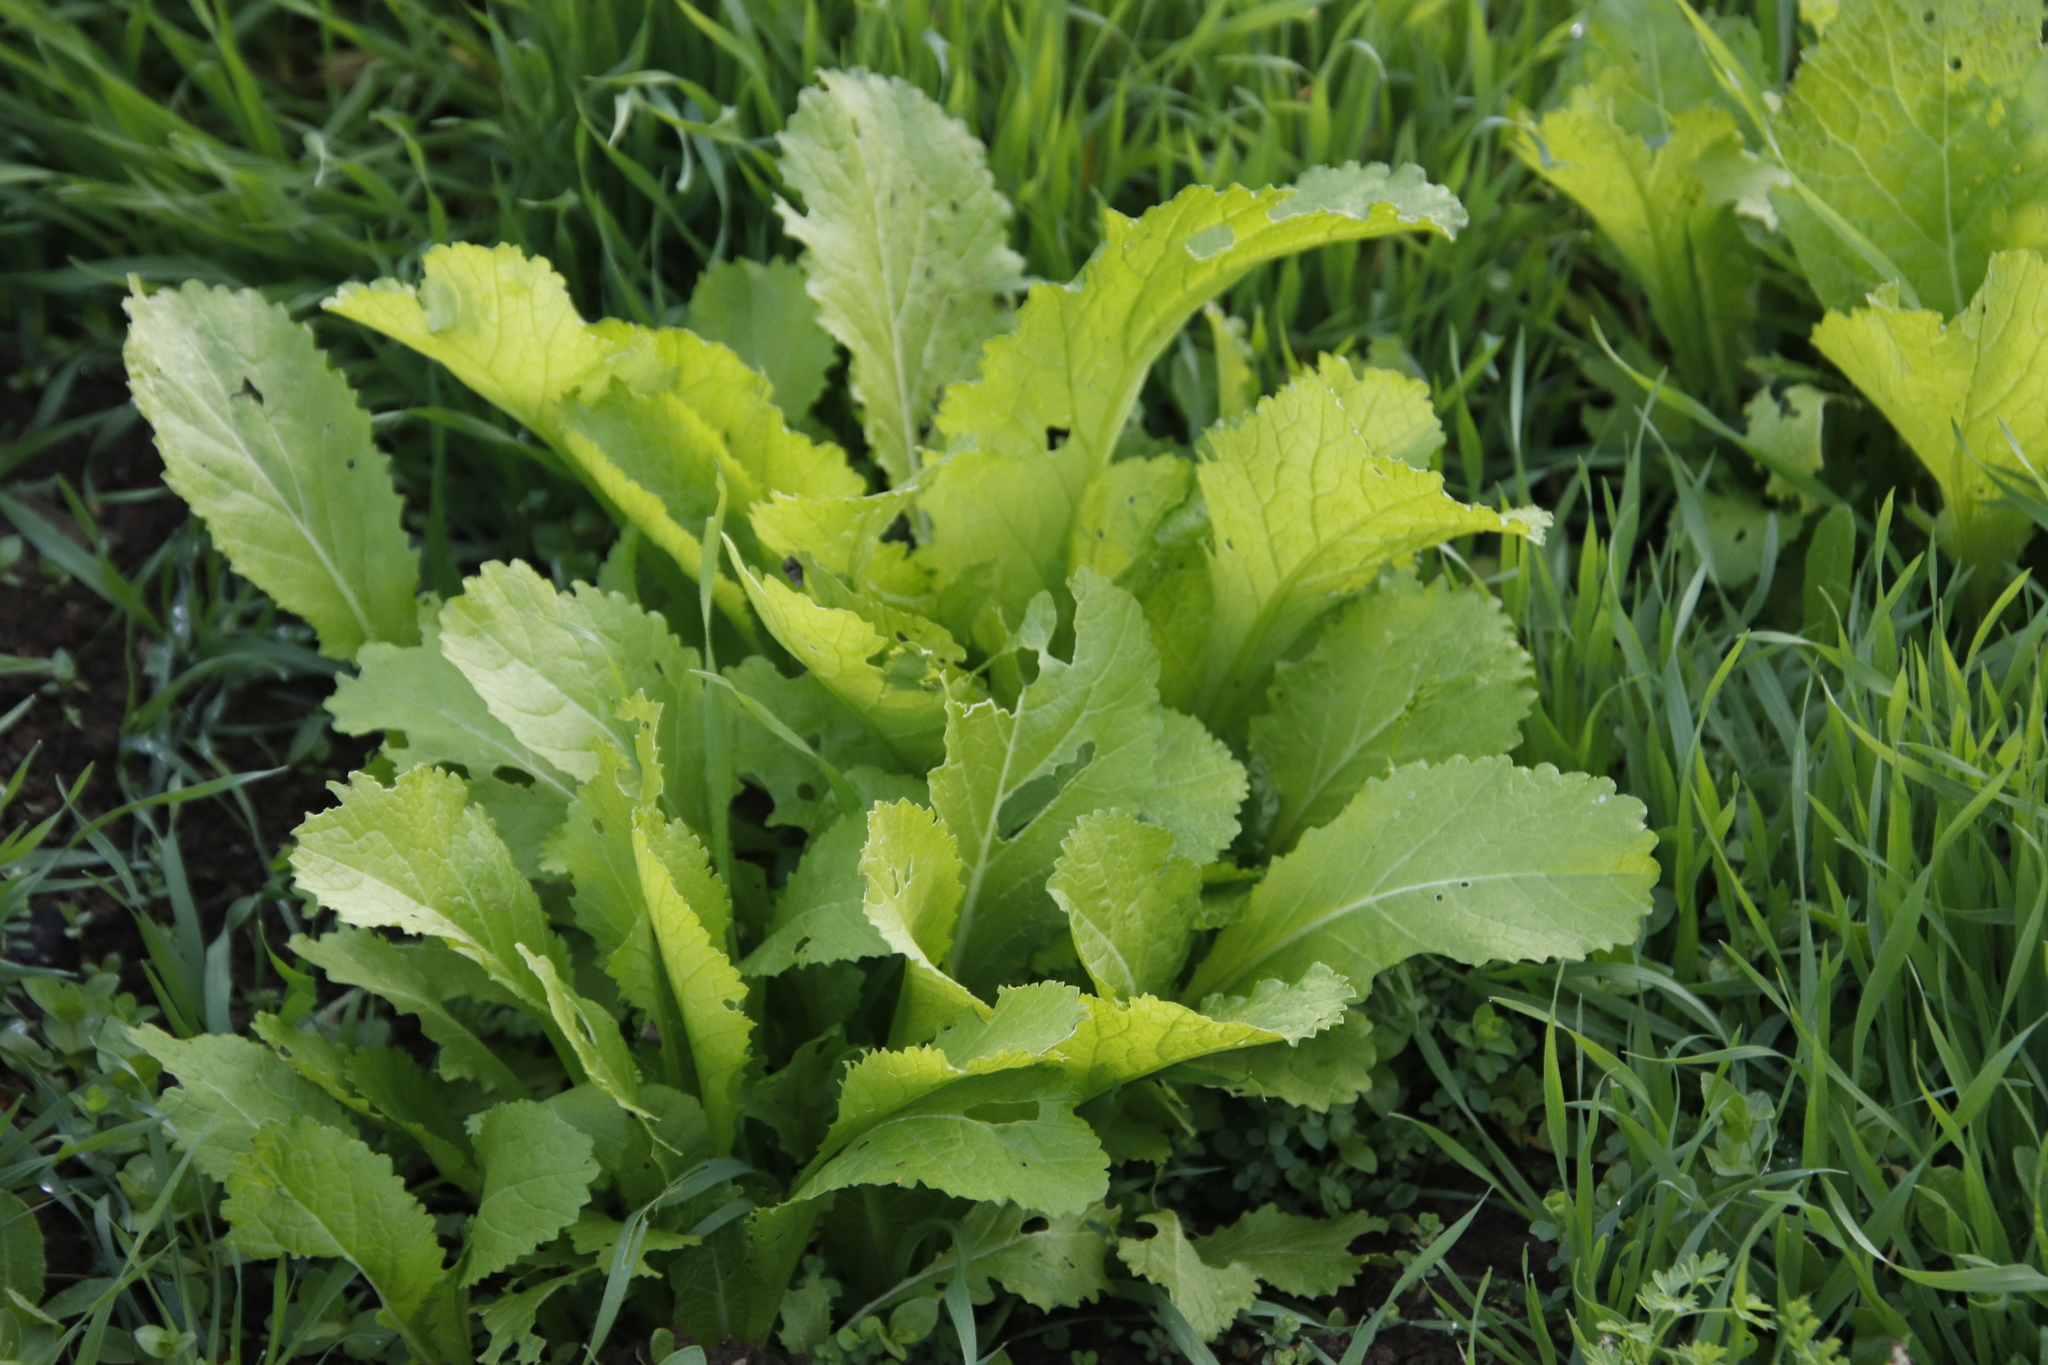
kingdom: Plantae
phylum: Tracheophyta
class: Magnoliopsida
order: Brassicales
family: Brassicaceae
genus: Brassica
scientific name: Brassica juncea
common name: Brown mustard
